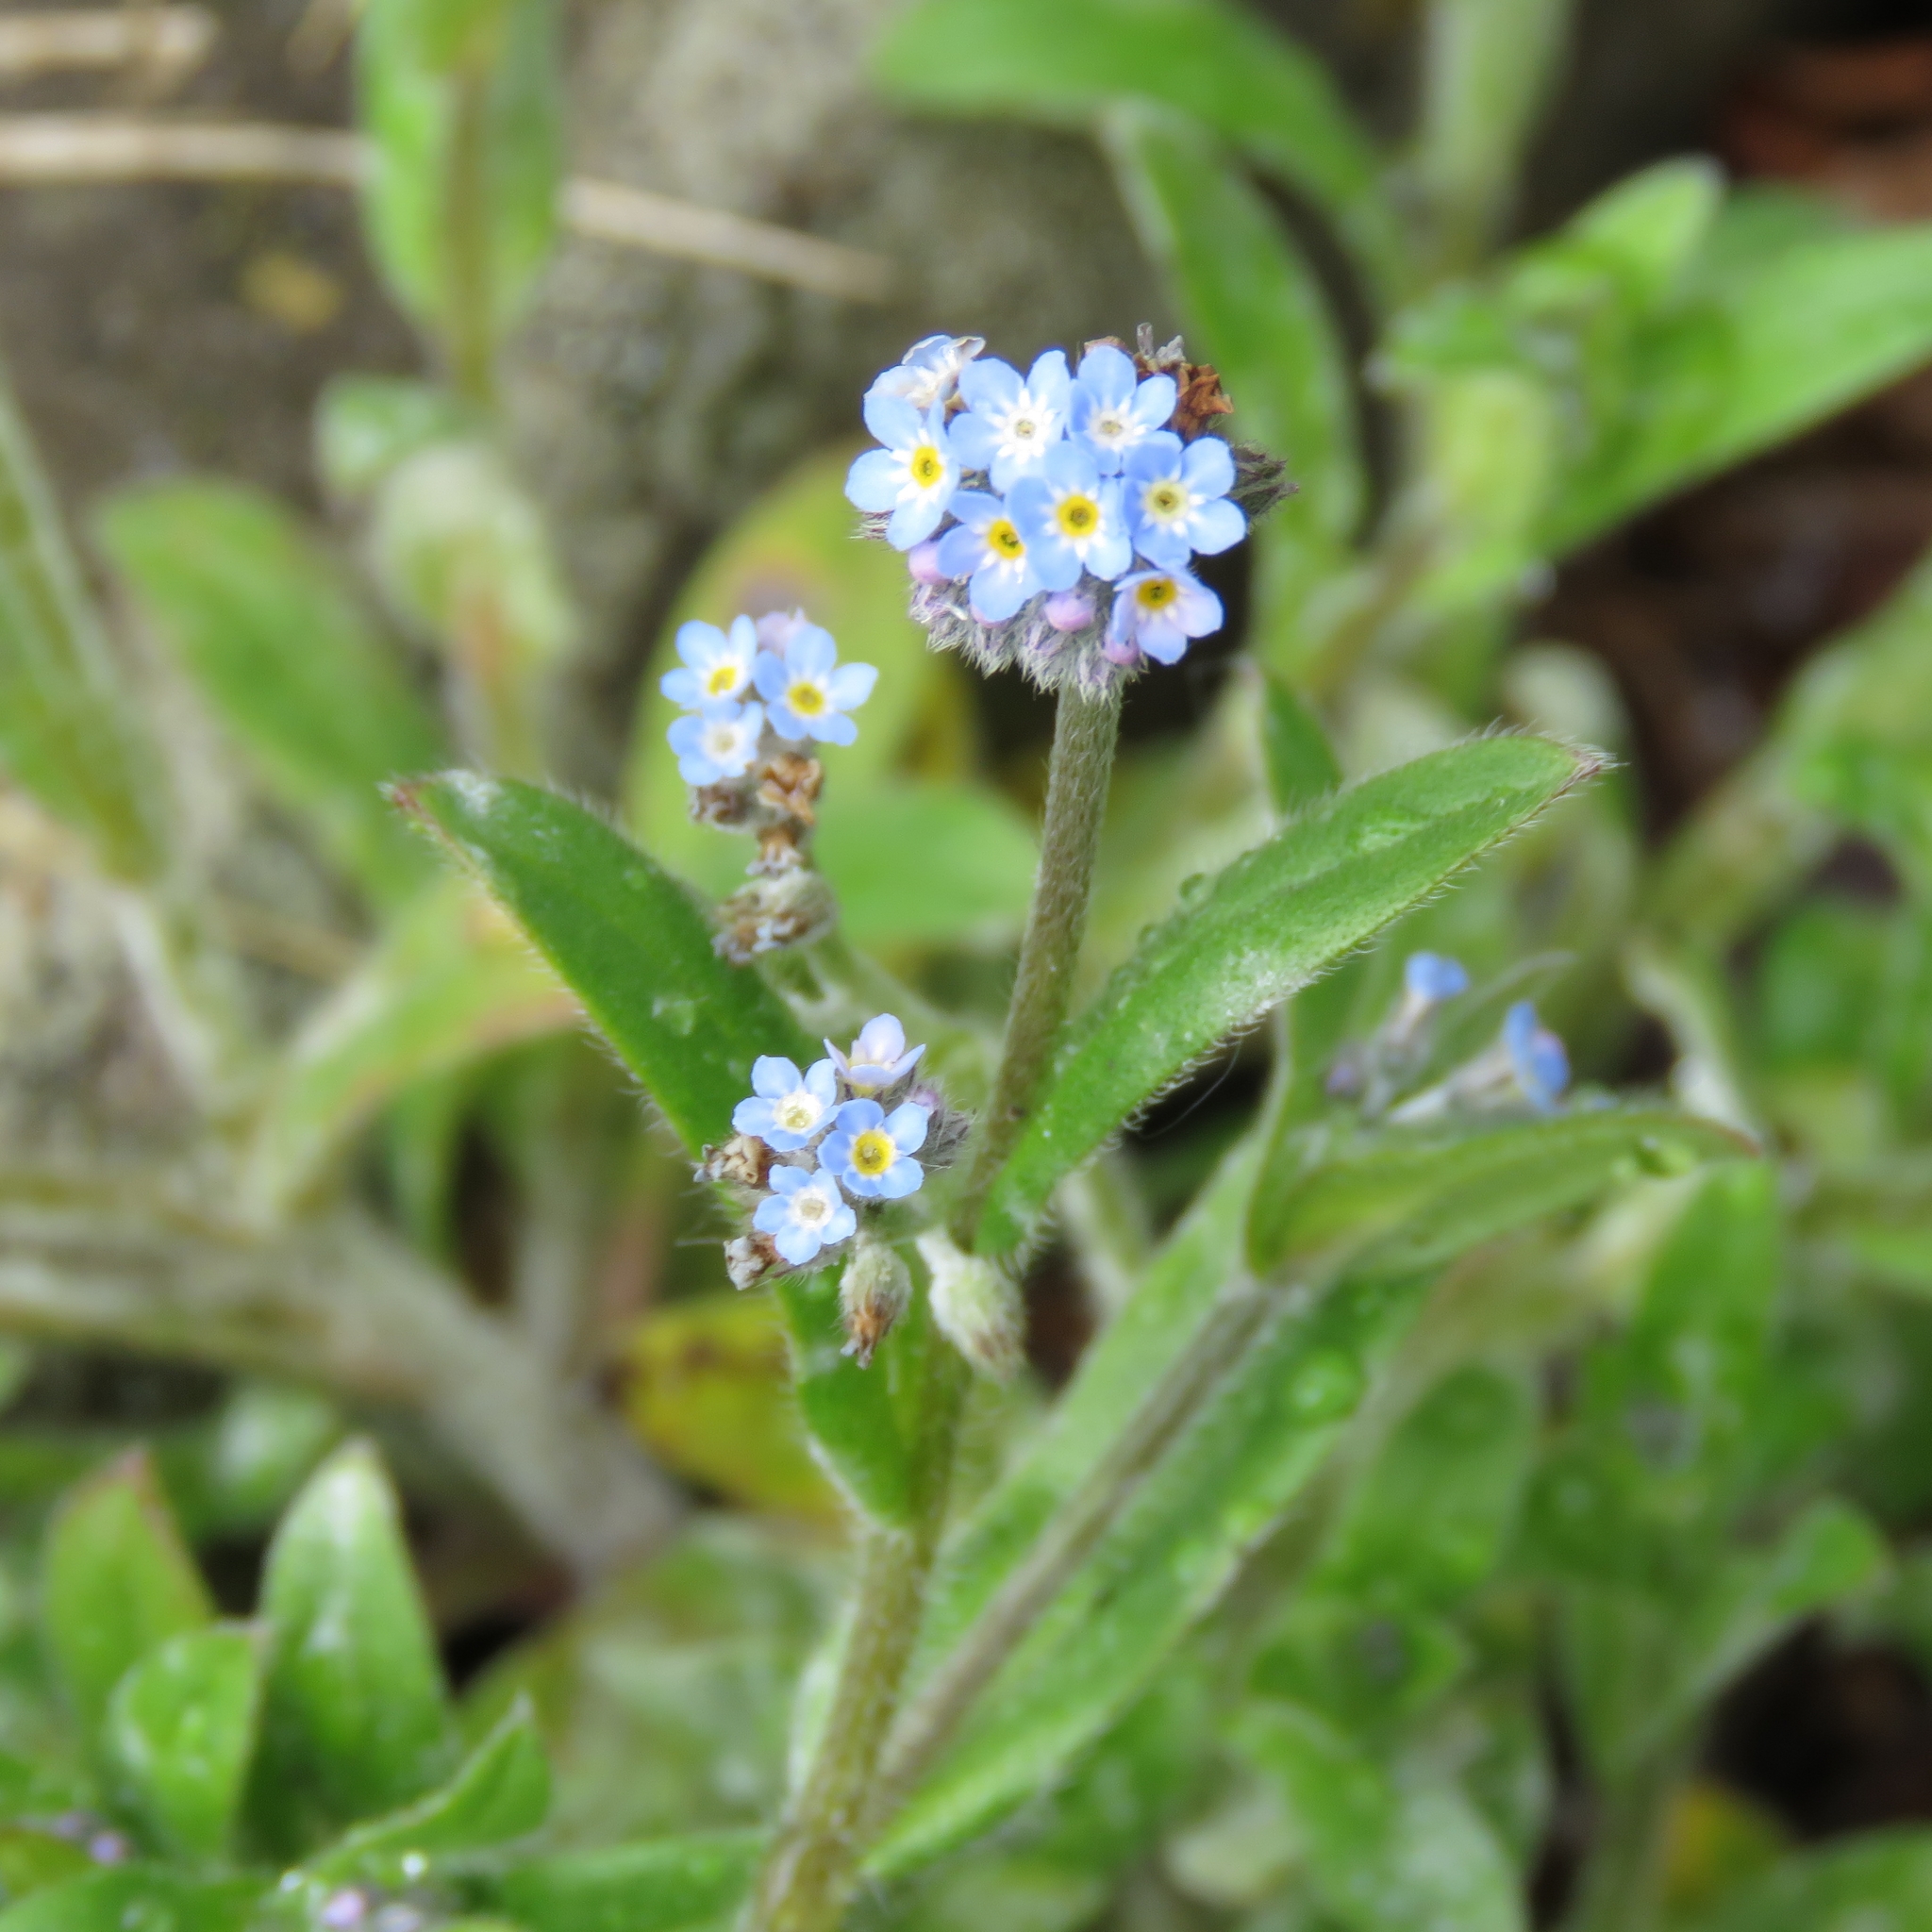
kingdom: Plantae
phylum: Tracheophyta
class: Magnoliopsida
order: Boraginales
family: Boraginaceae
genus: Myosotis
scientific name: Myosotis arvensis
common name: Field forget-me-not
